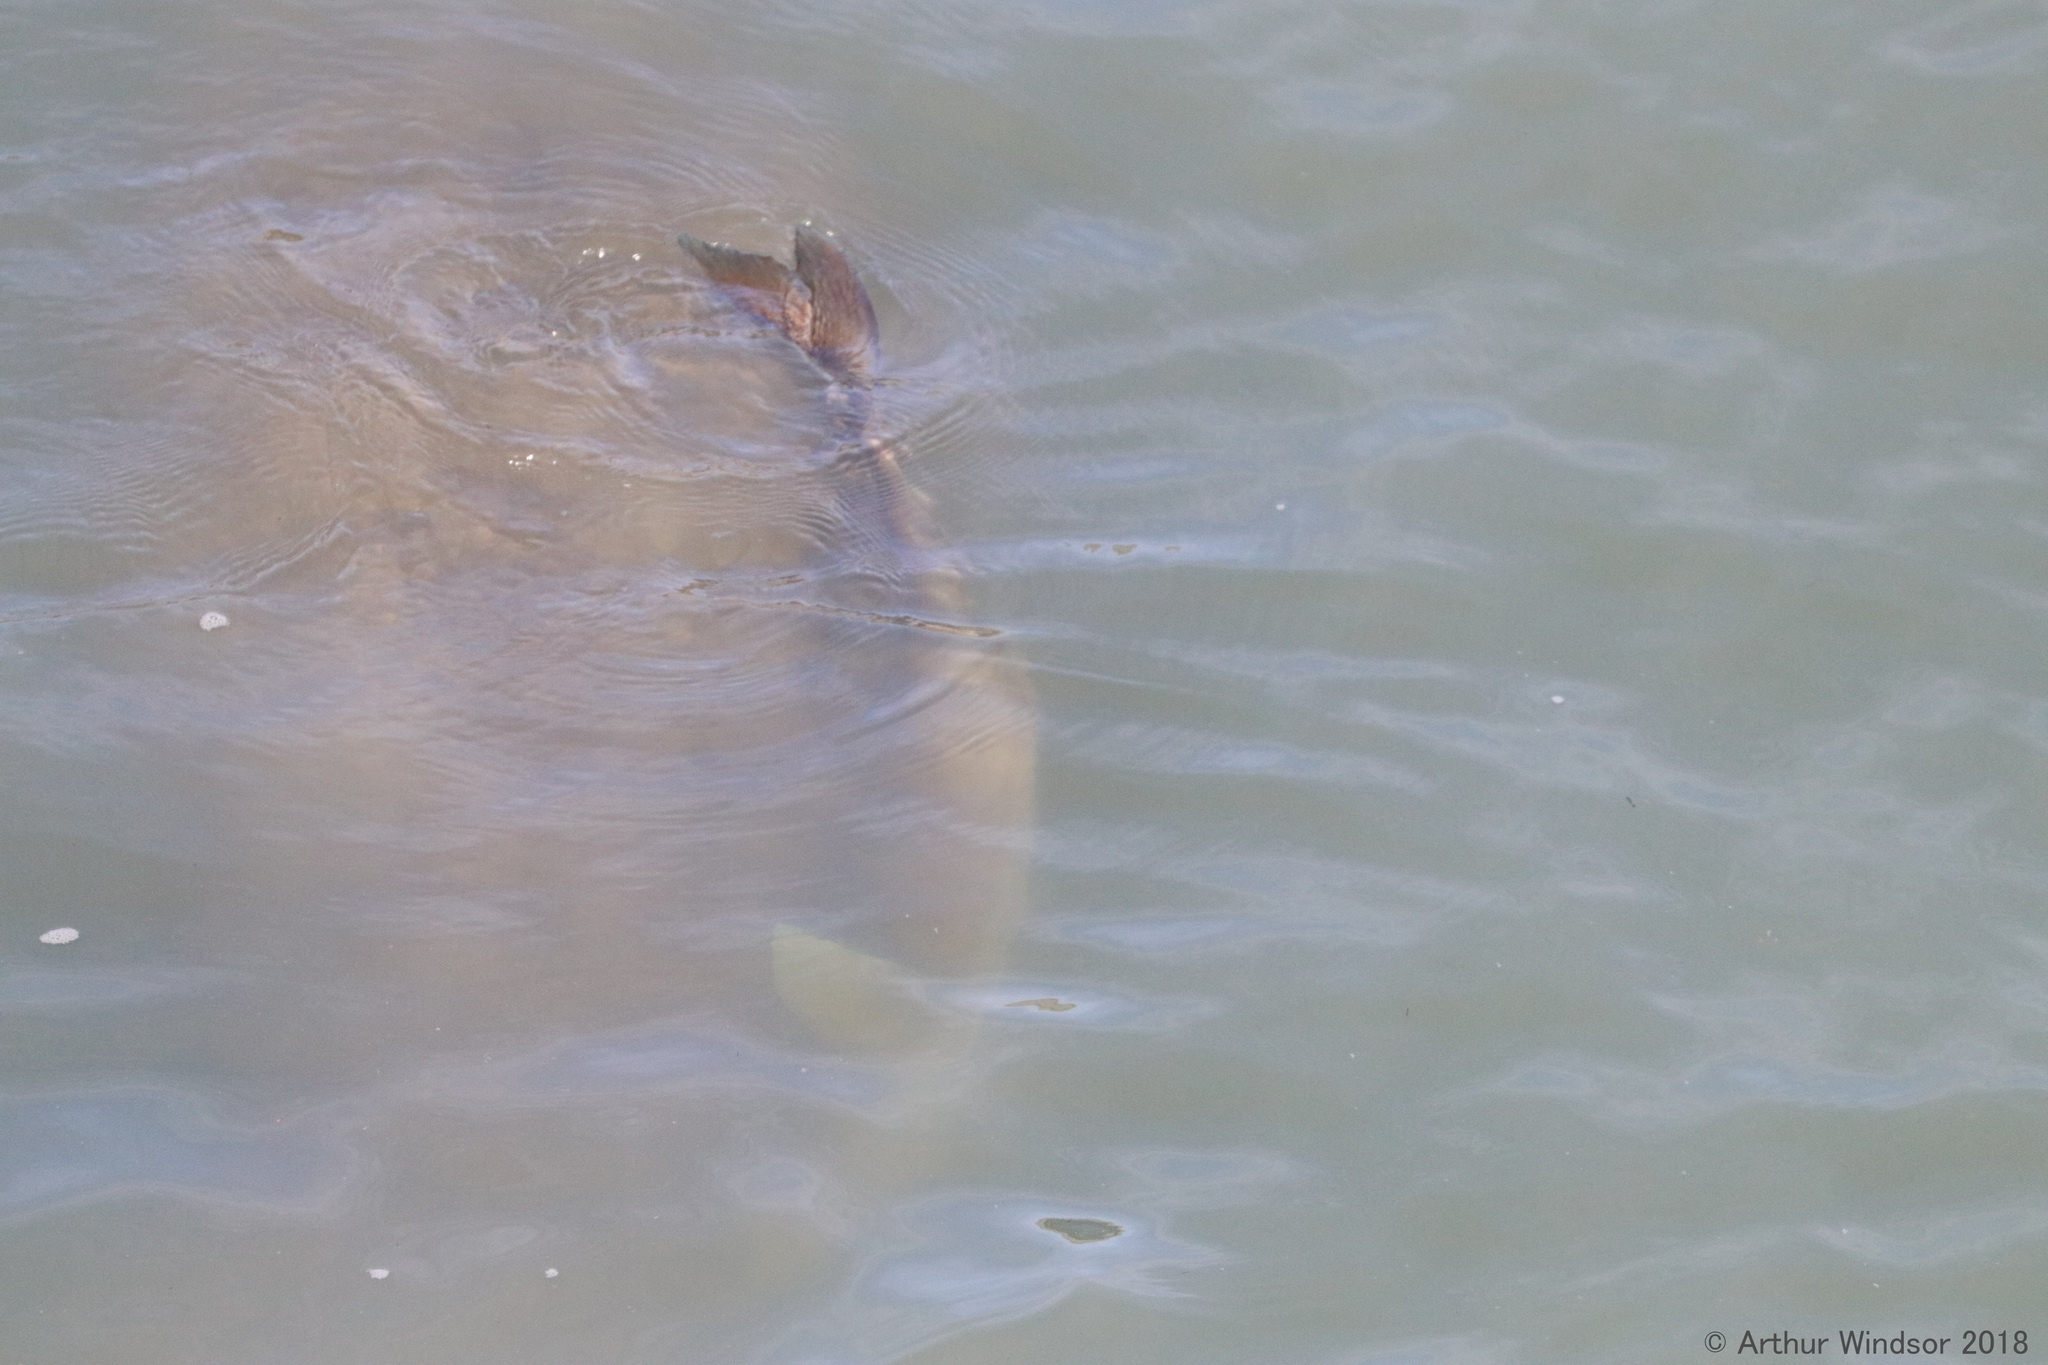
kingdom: Animalia
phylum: Chordata
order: Perciformes
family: Echeneidae
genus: Echeneis
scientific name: Echeneis naucrates
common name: Sharksucker
